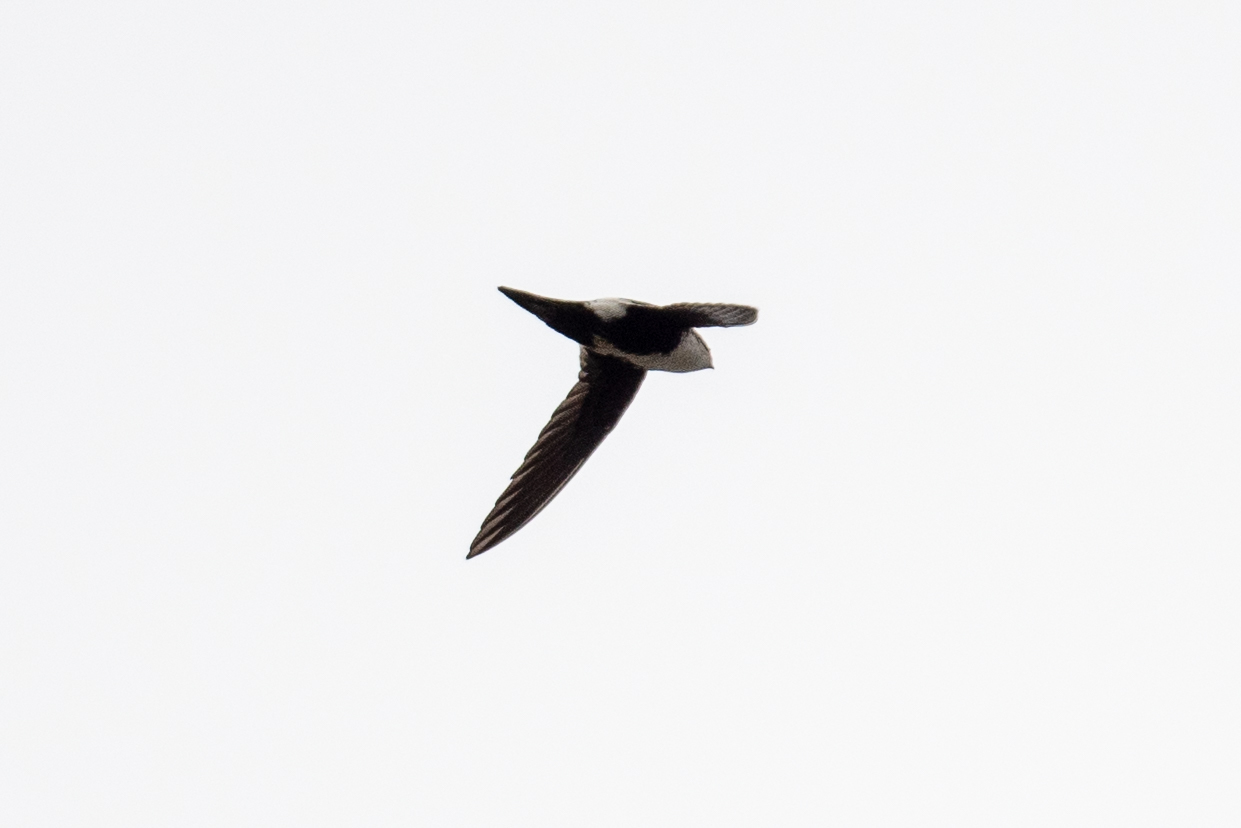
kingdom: Animalia
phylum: Chordata
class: Aves
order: Apodiformes
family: Apodidae
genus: Aeronautes
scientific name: Aeronautes saxatalis
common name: White-throated swift
